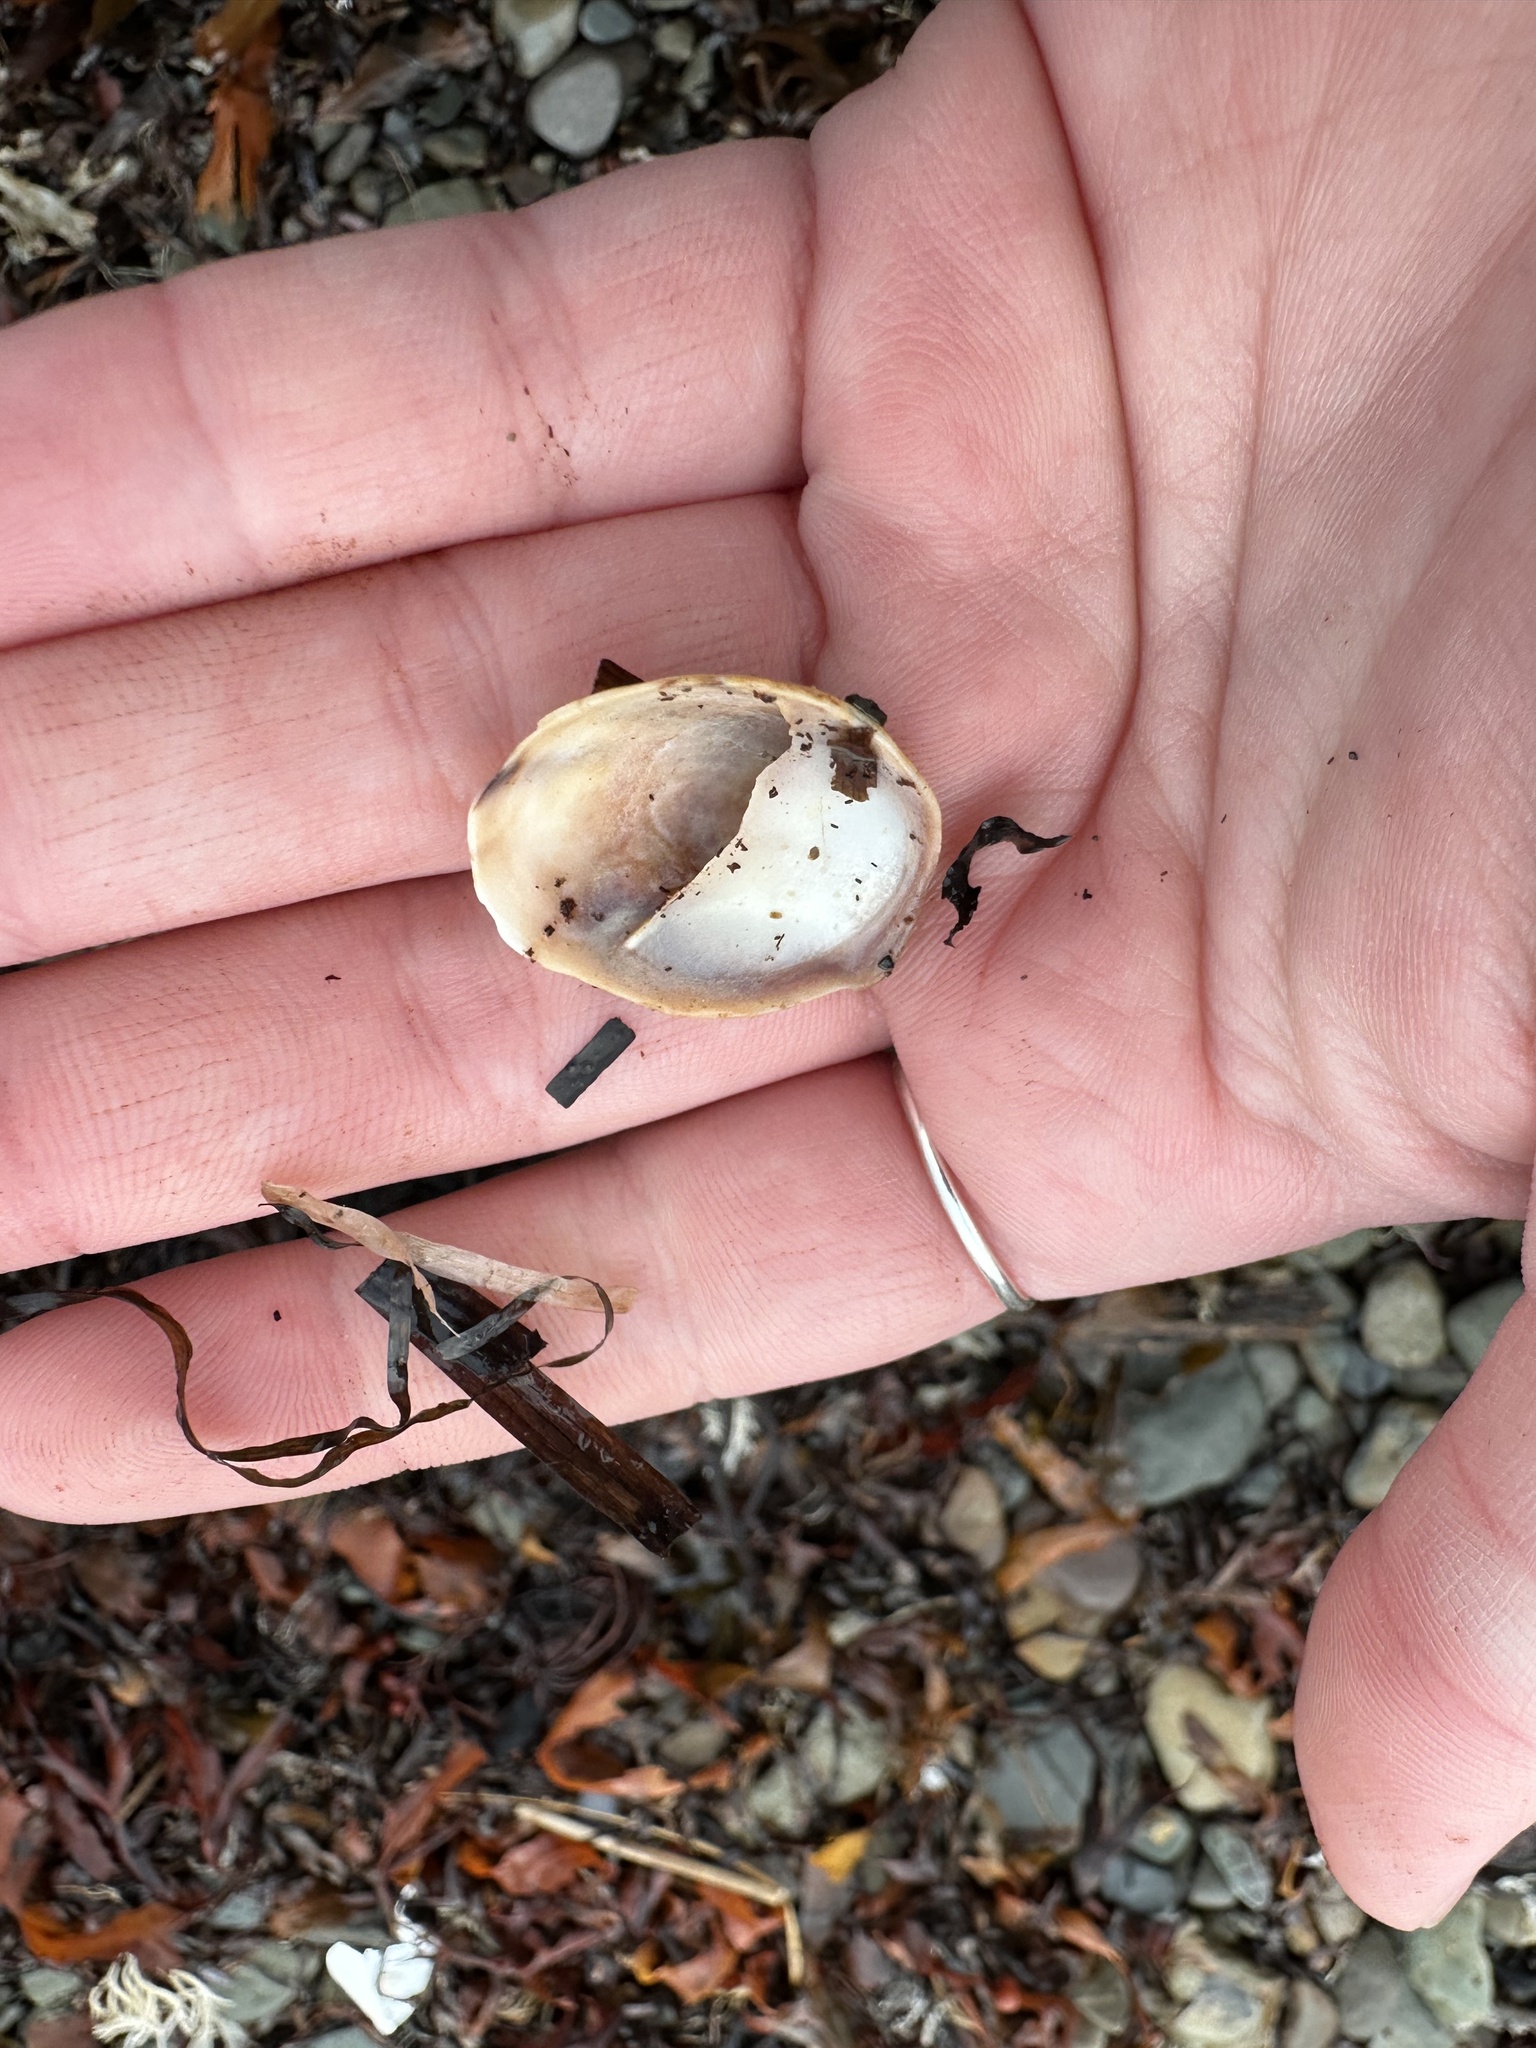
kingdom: Animalia
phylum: Mollusca
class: Gastropoda
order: Littorinimorpha
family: Calyptraeidae
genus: Crepidula
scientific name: Crepidula fornicata
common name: Slipper limpet
